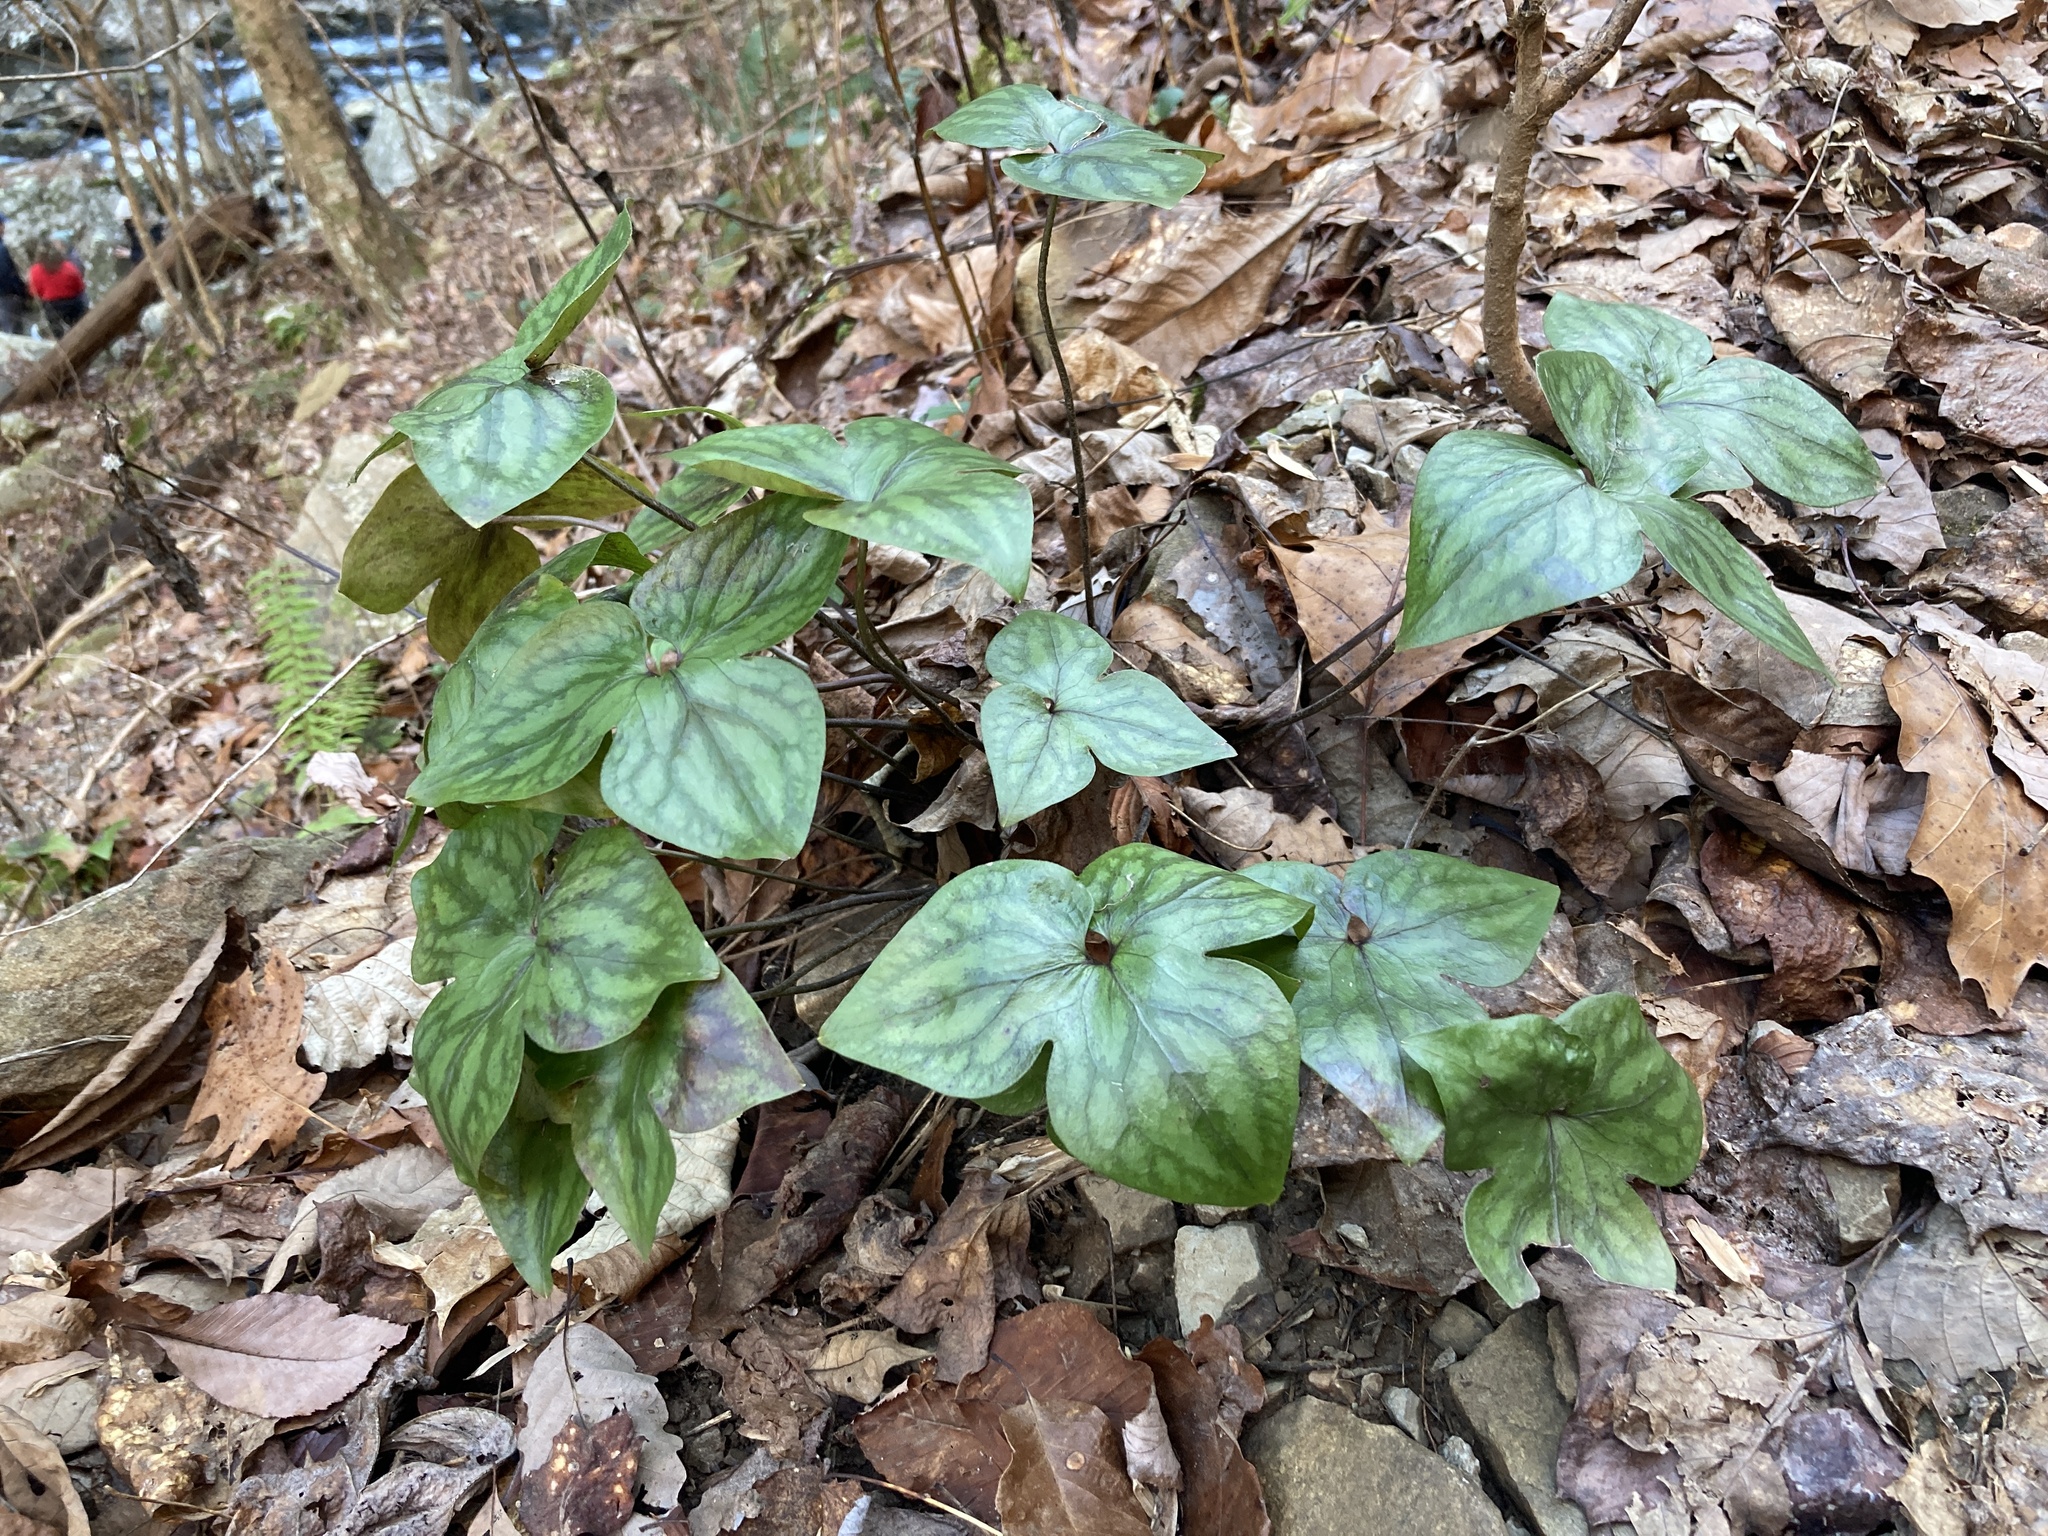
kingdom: Plantae
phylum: Tracheophyta
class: Magnoliopsida
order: Ranunculales
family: Ranunculaceae
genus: Hepatica
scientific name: Hepatica acutiloba
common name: Sharp-lobed hepatica
